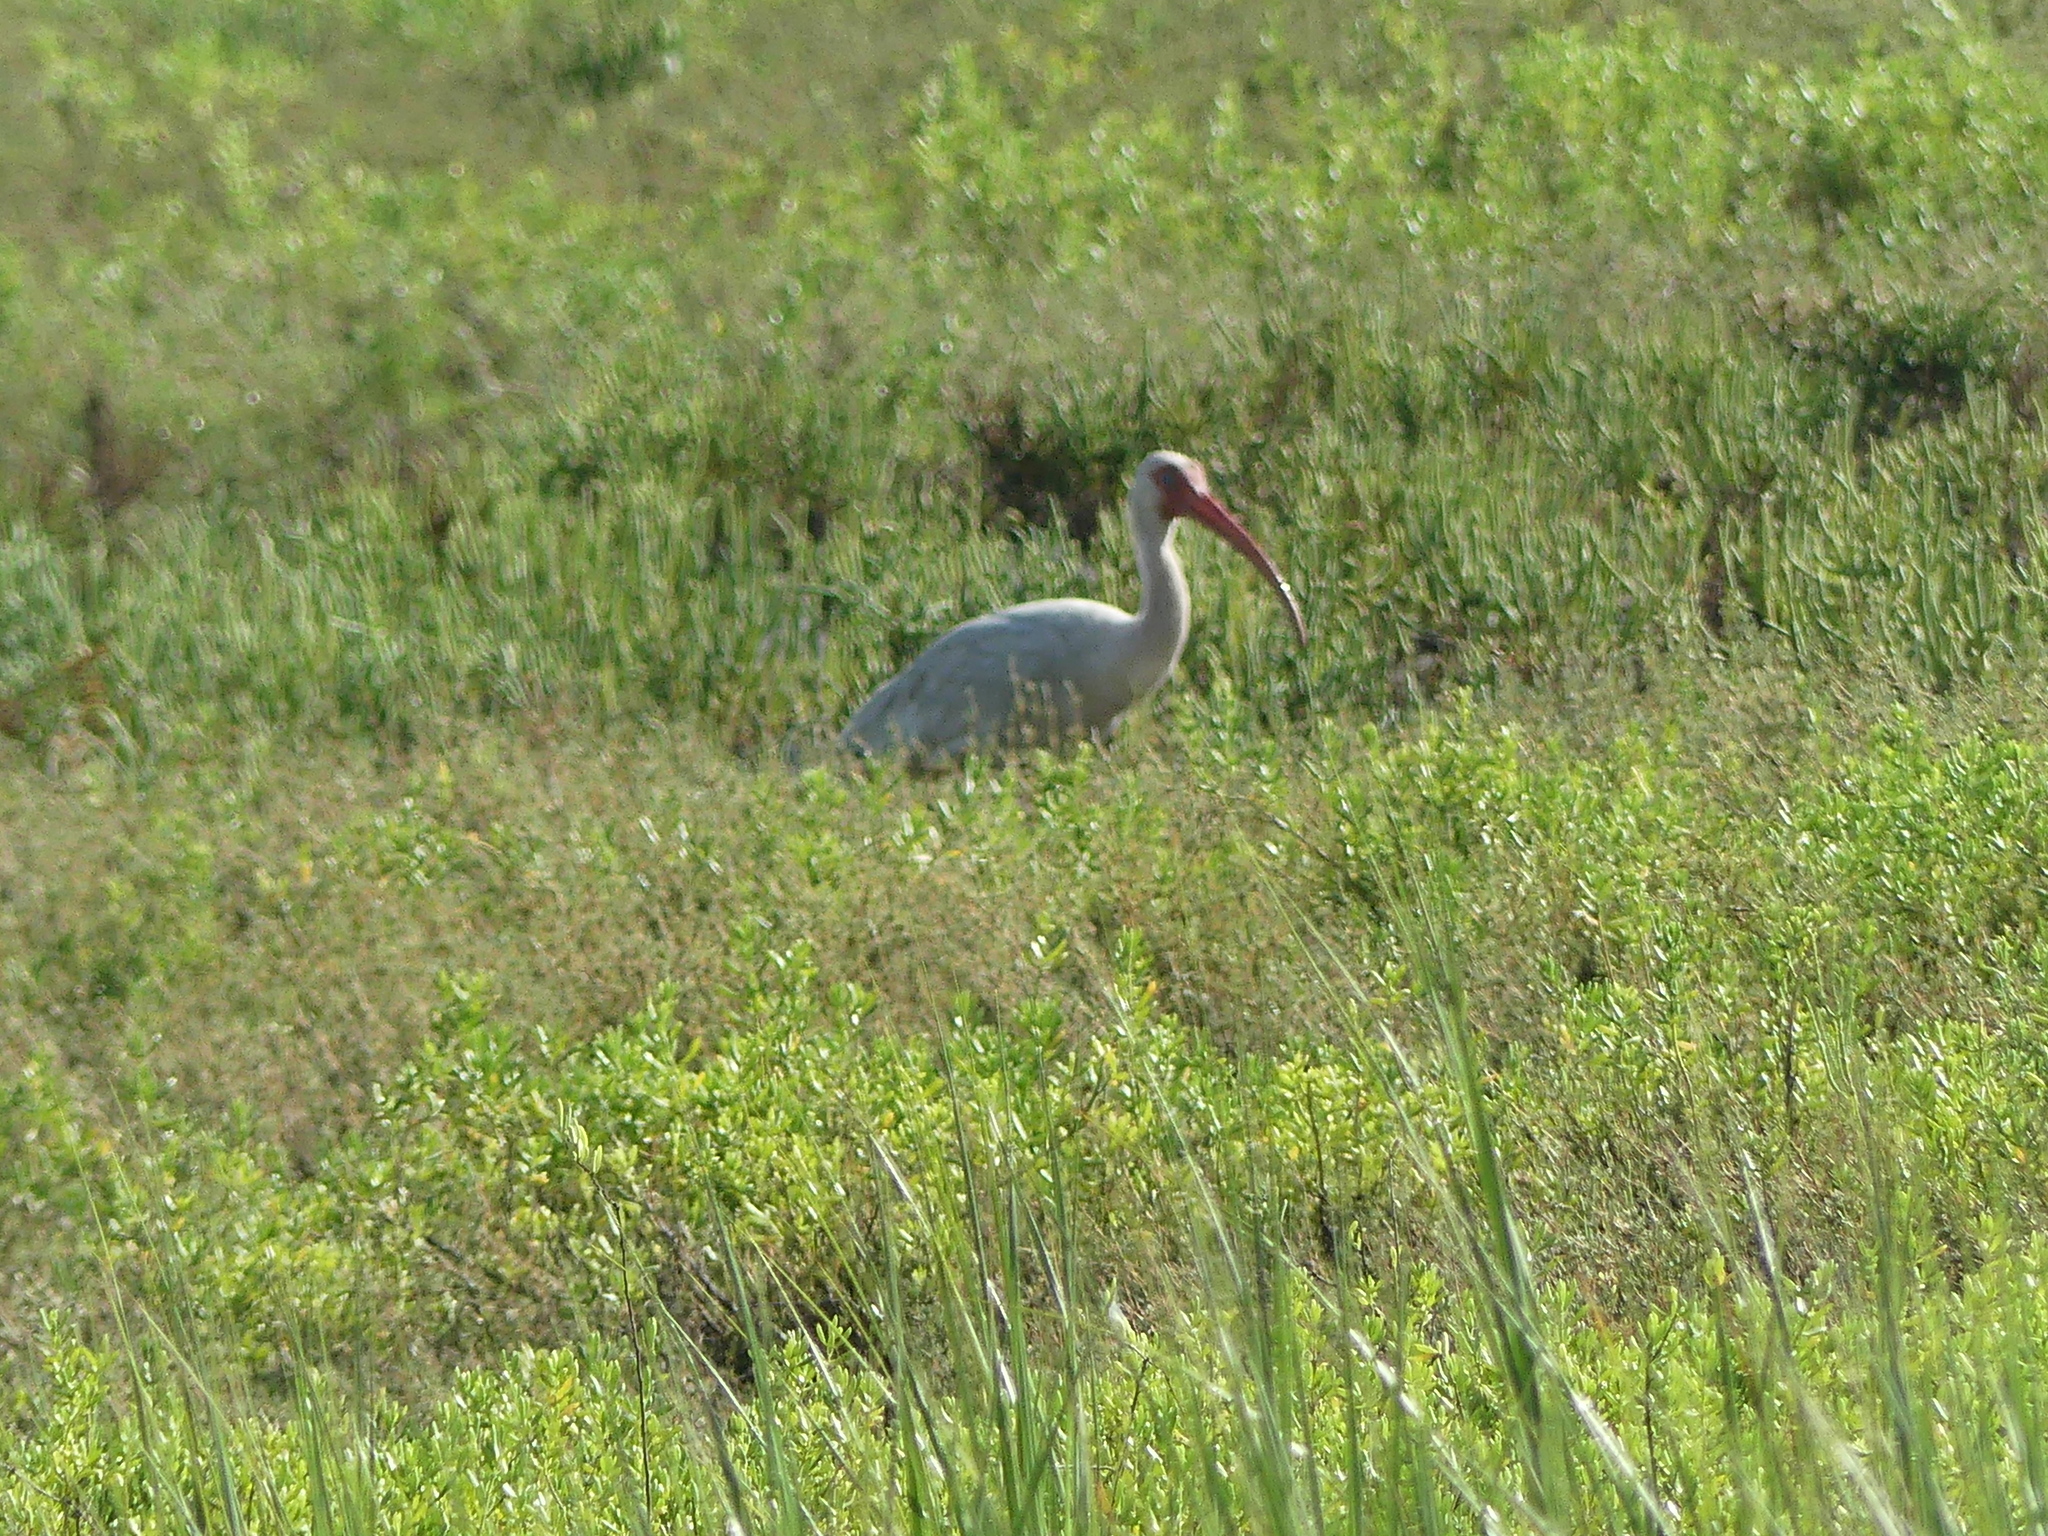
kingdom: Animalia
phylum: Chordata
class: Aves
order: Pelecaniformes
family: Threskiornithidae
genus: Eudocimus
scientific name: Eudocimus albus
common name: White ibis
